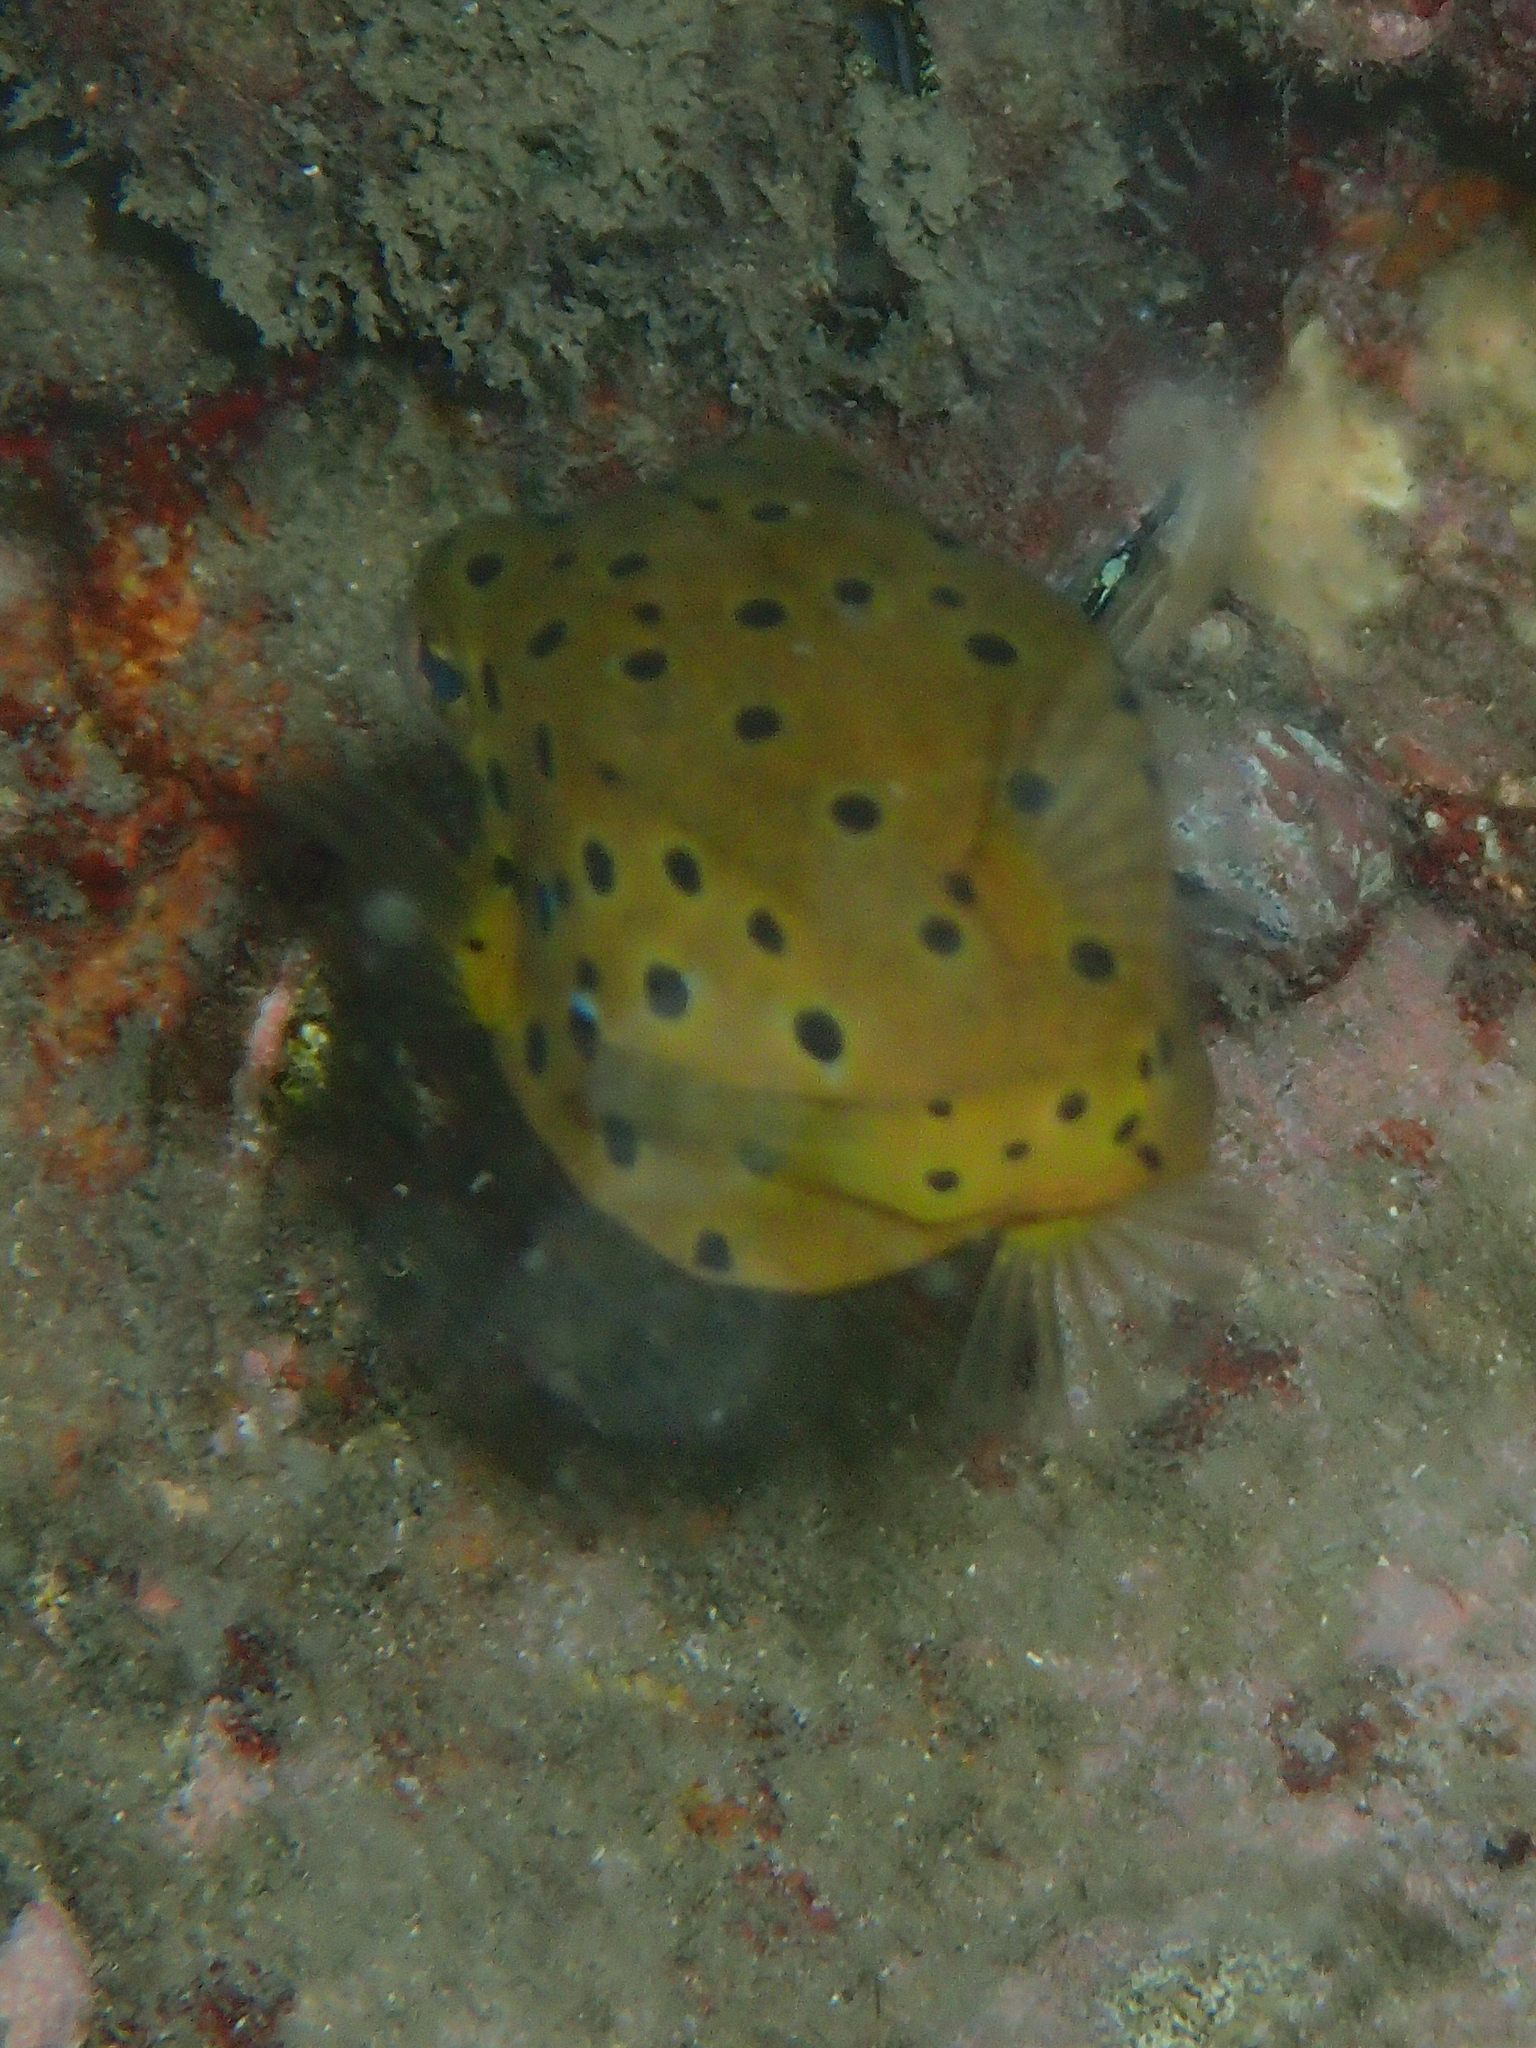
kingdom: Animalia
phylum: Chordata
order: Tetraodontiformes
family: Ostraciidae
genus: Ostracion
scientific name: Ostracion cubicus
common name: Cube trunkfish
